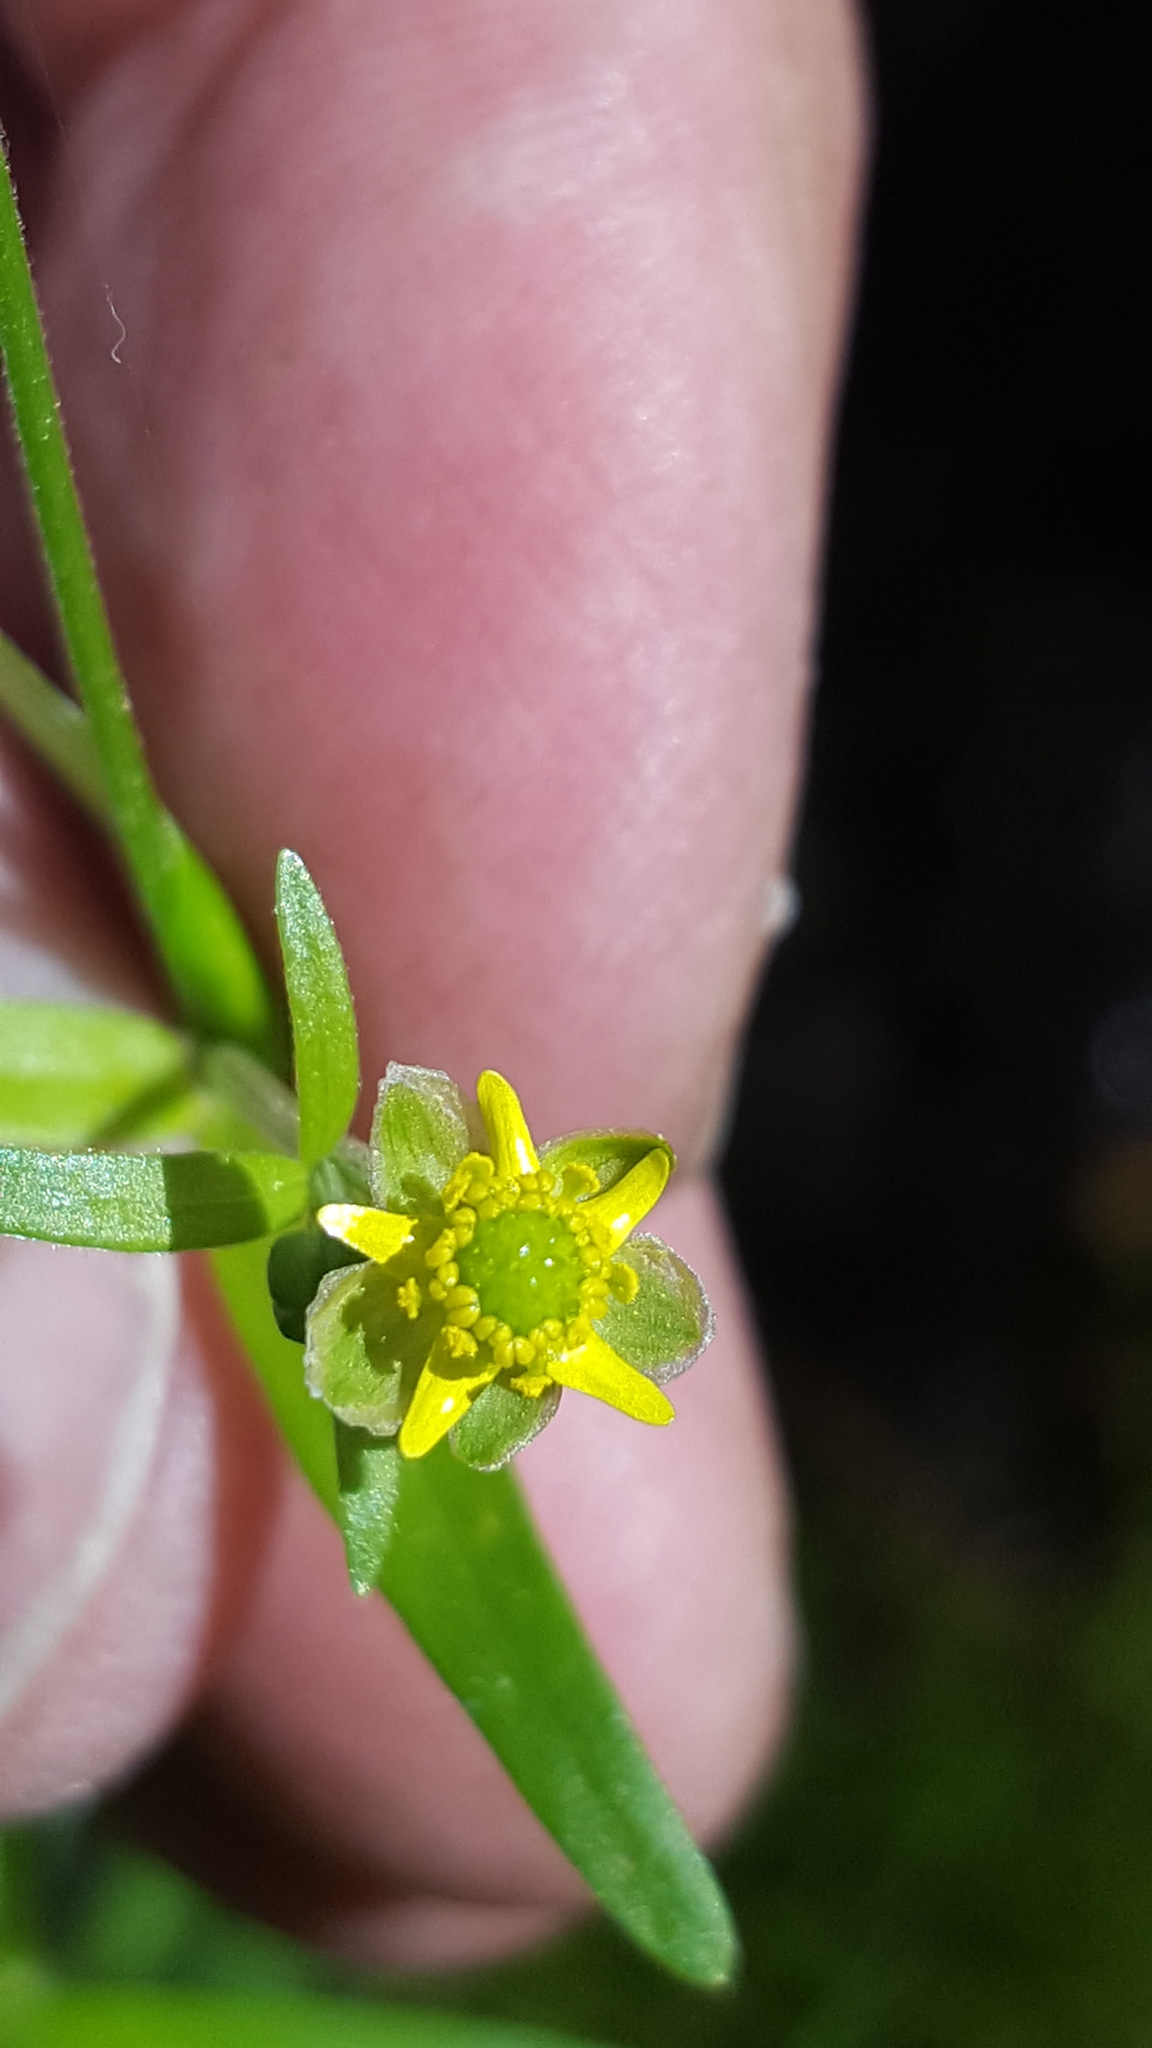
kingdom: Plantae
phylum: Tracheophyta
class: Magnoliopsida
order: Ranunculales
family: Ranunculaceae
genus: Ranunculus
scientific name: Ranunculus abortivus
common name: Early wood buttercup
